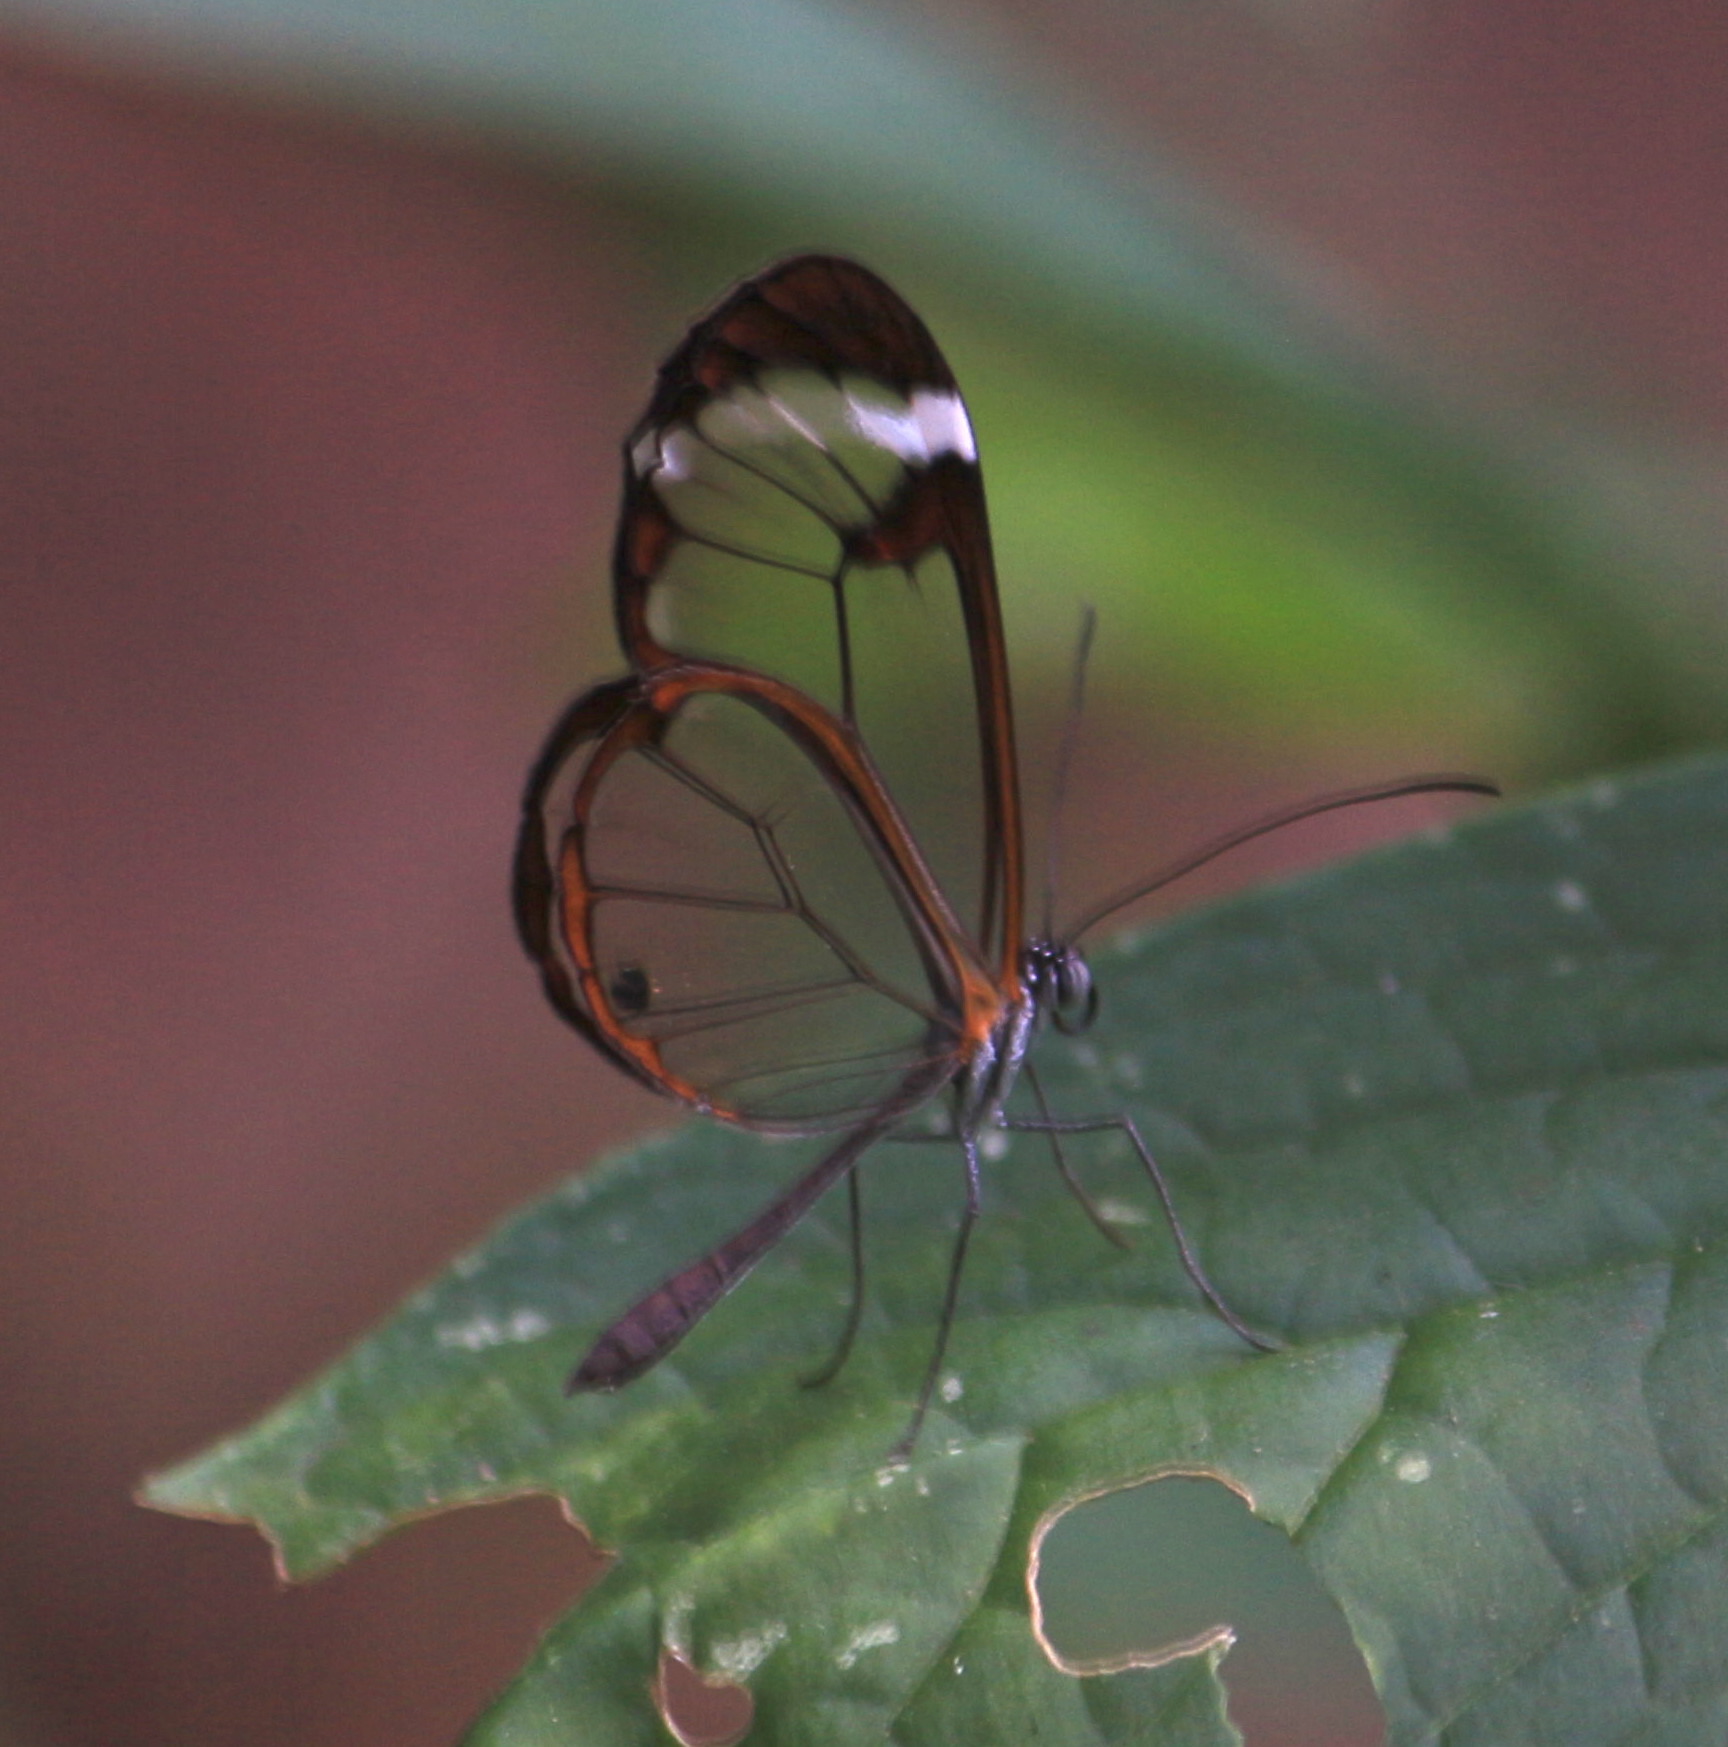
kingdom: Animalia
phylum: Arthropoda
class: Insecta
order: Lepidoptera
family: Nymphalidae
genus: Greta
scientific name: Greta morgane
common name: Thick-tipped greta
